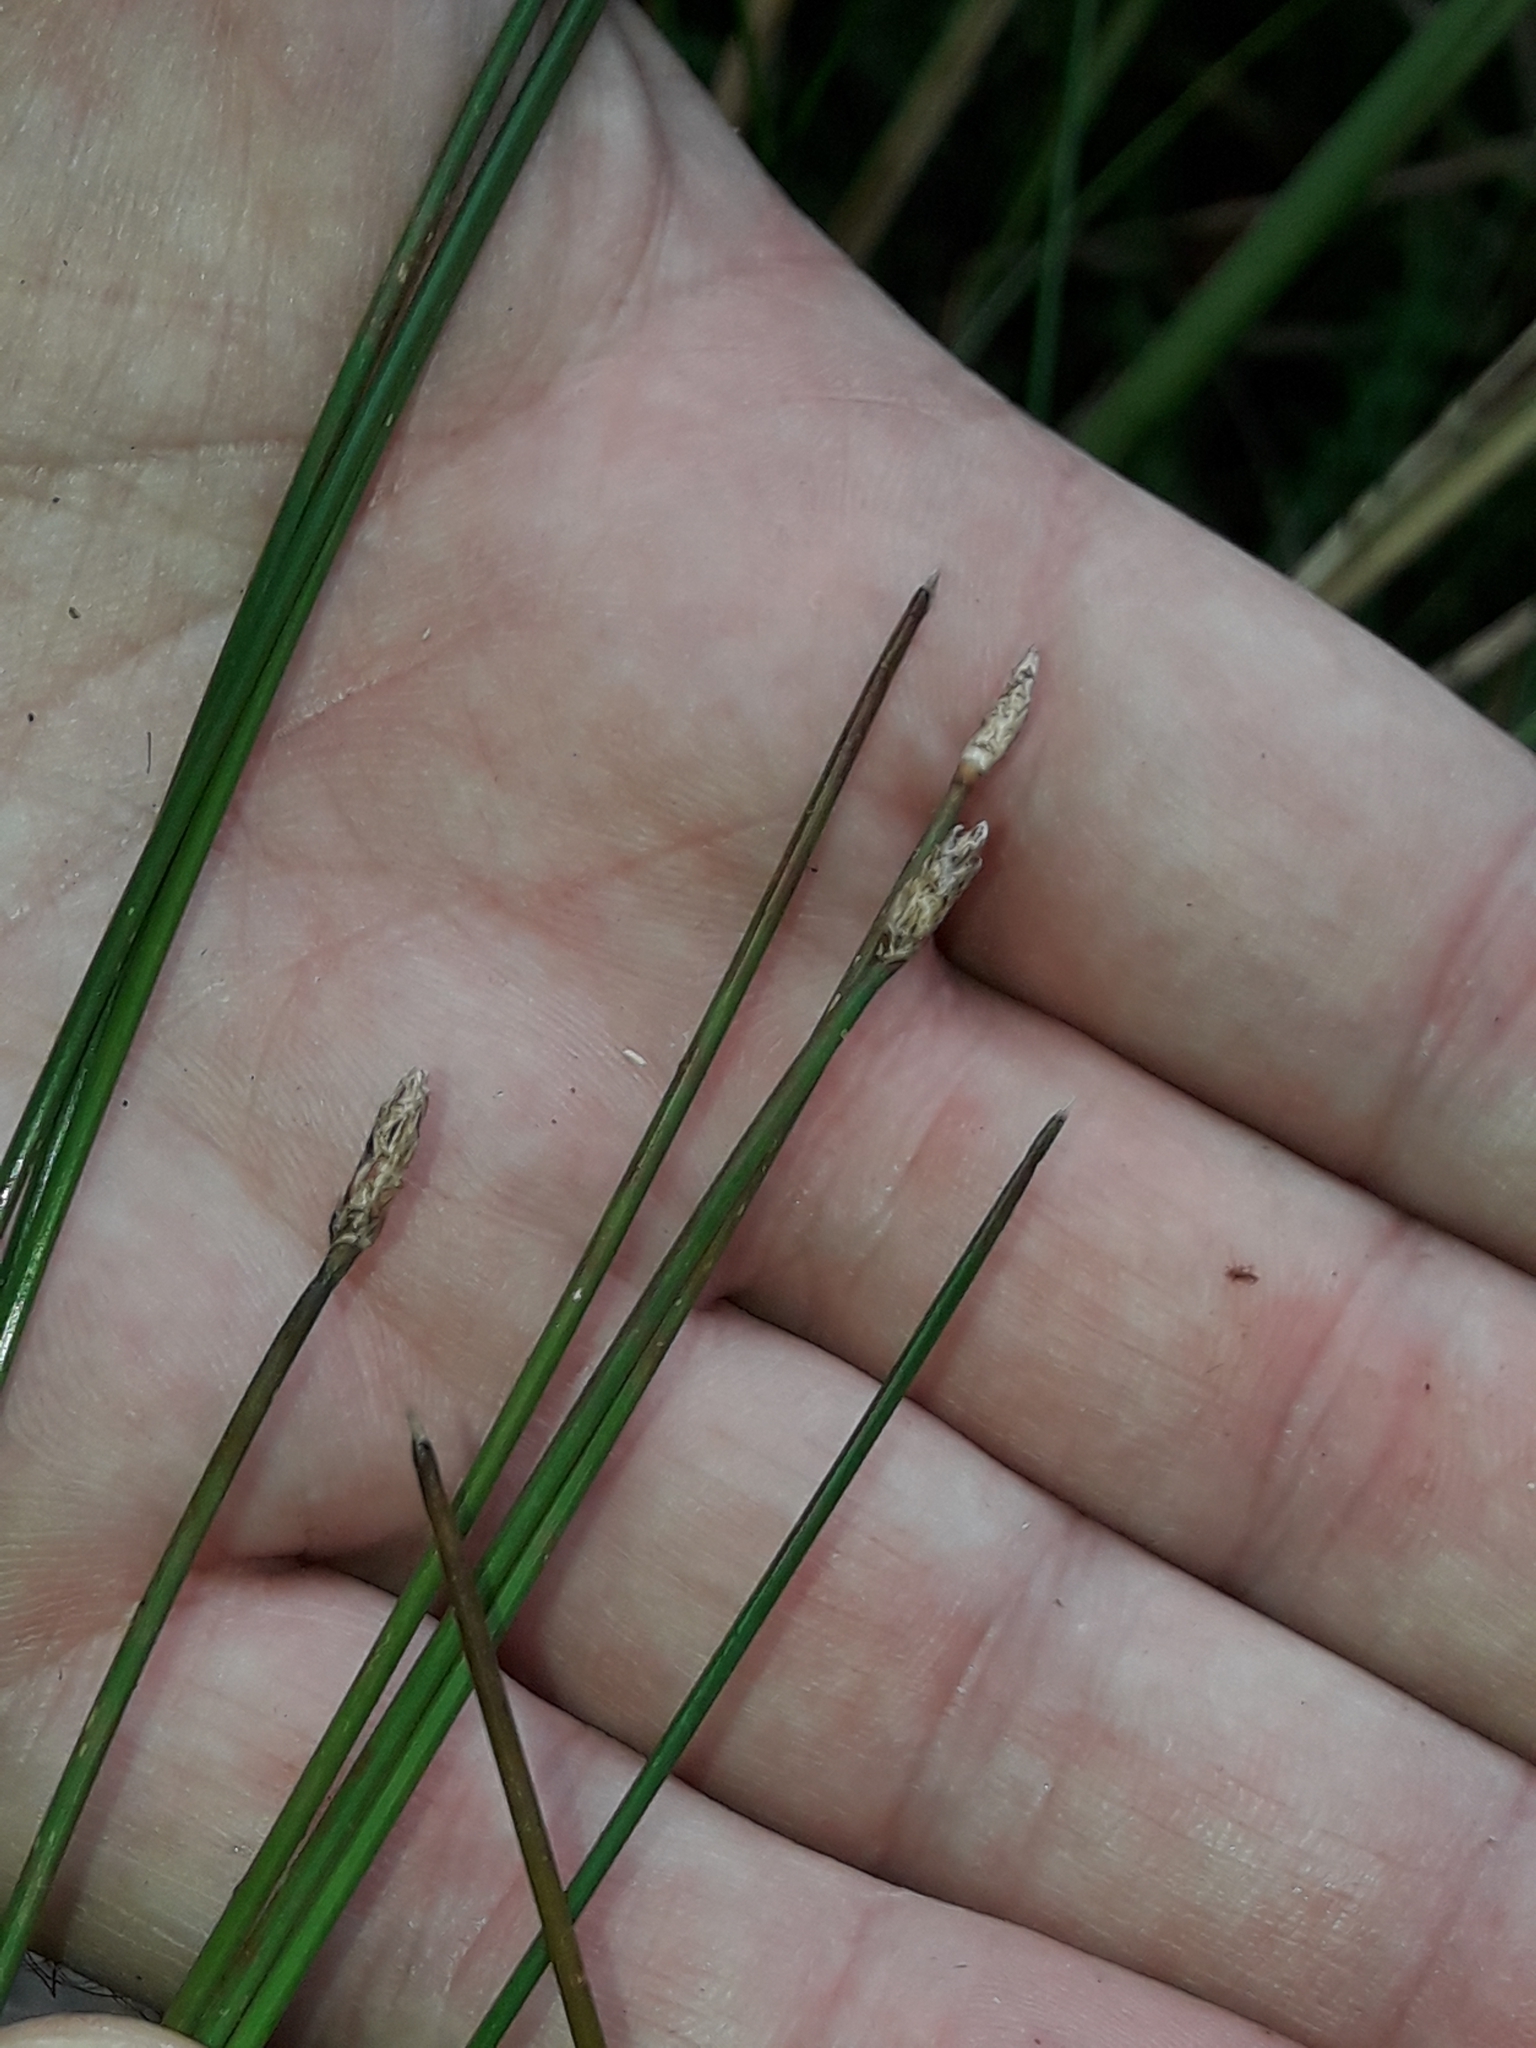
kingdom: Plantae
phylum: Tracheophyta
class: Liliopsida
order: Poales
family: Cyperaceae
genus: Eleocharis
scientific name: Eleocharis acuta
